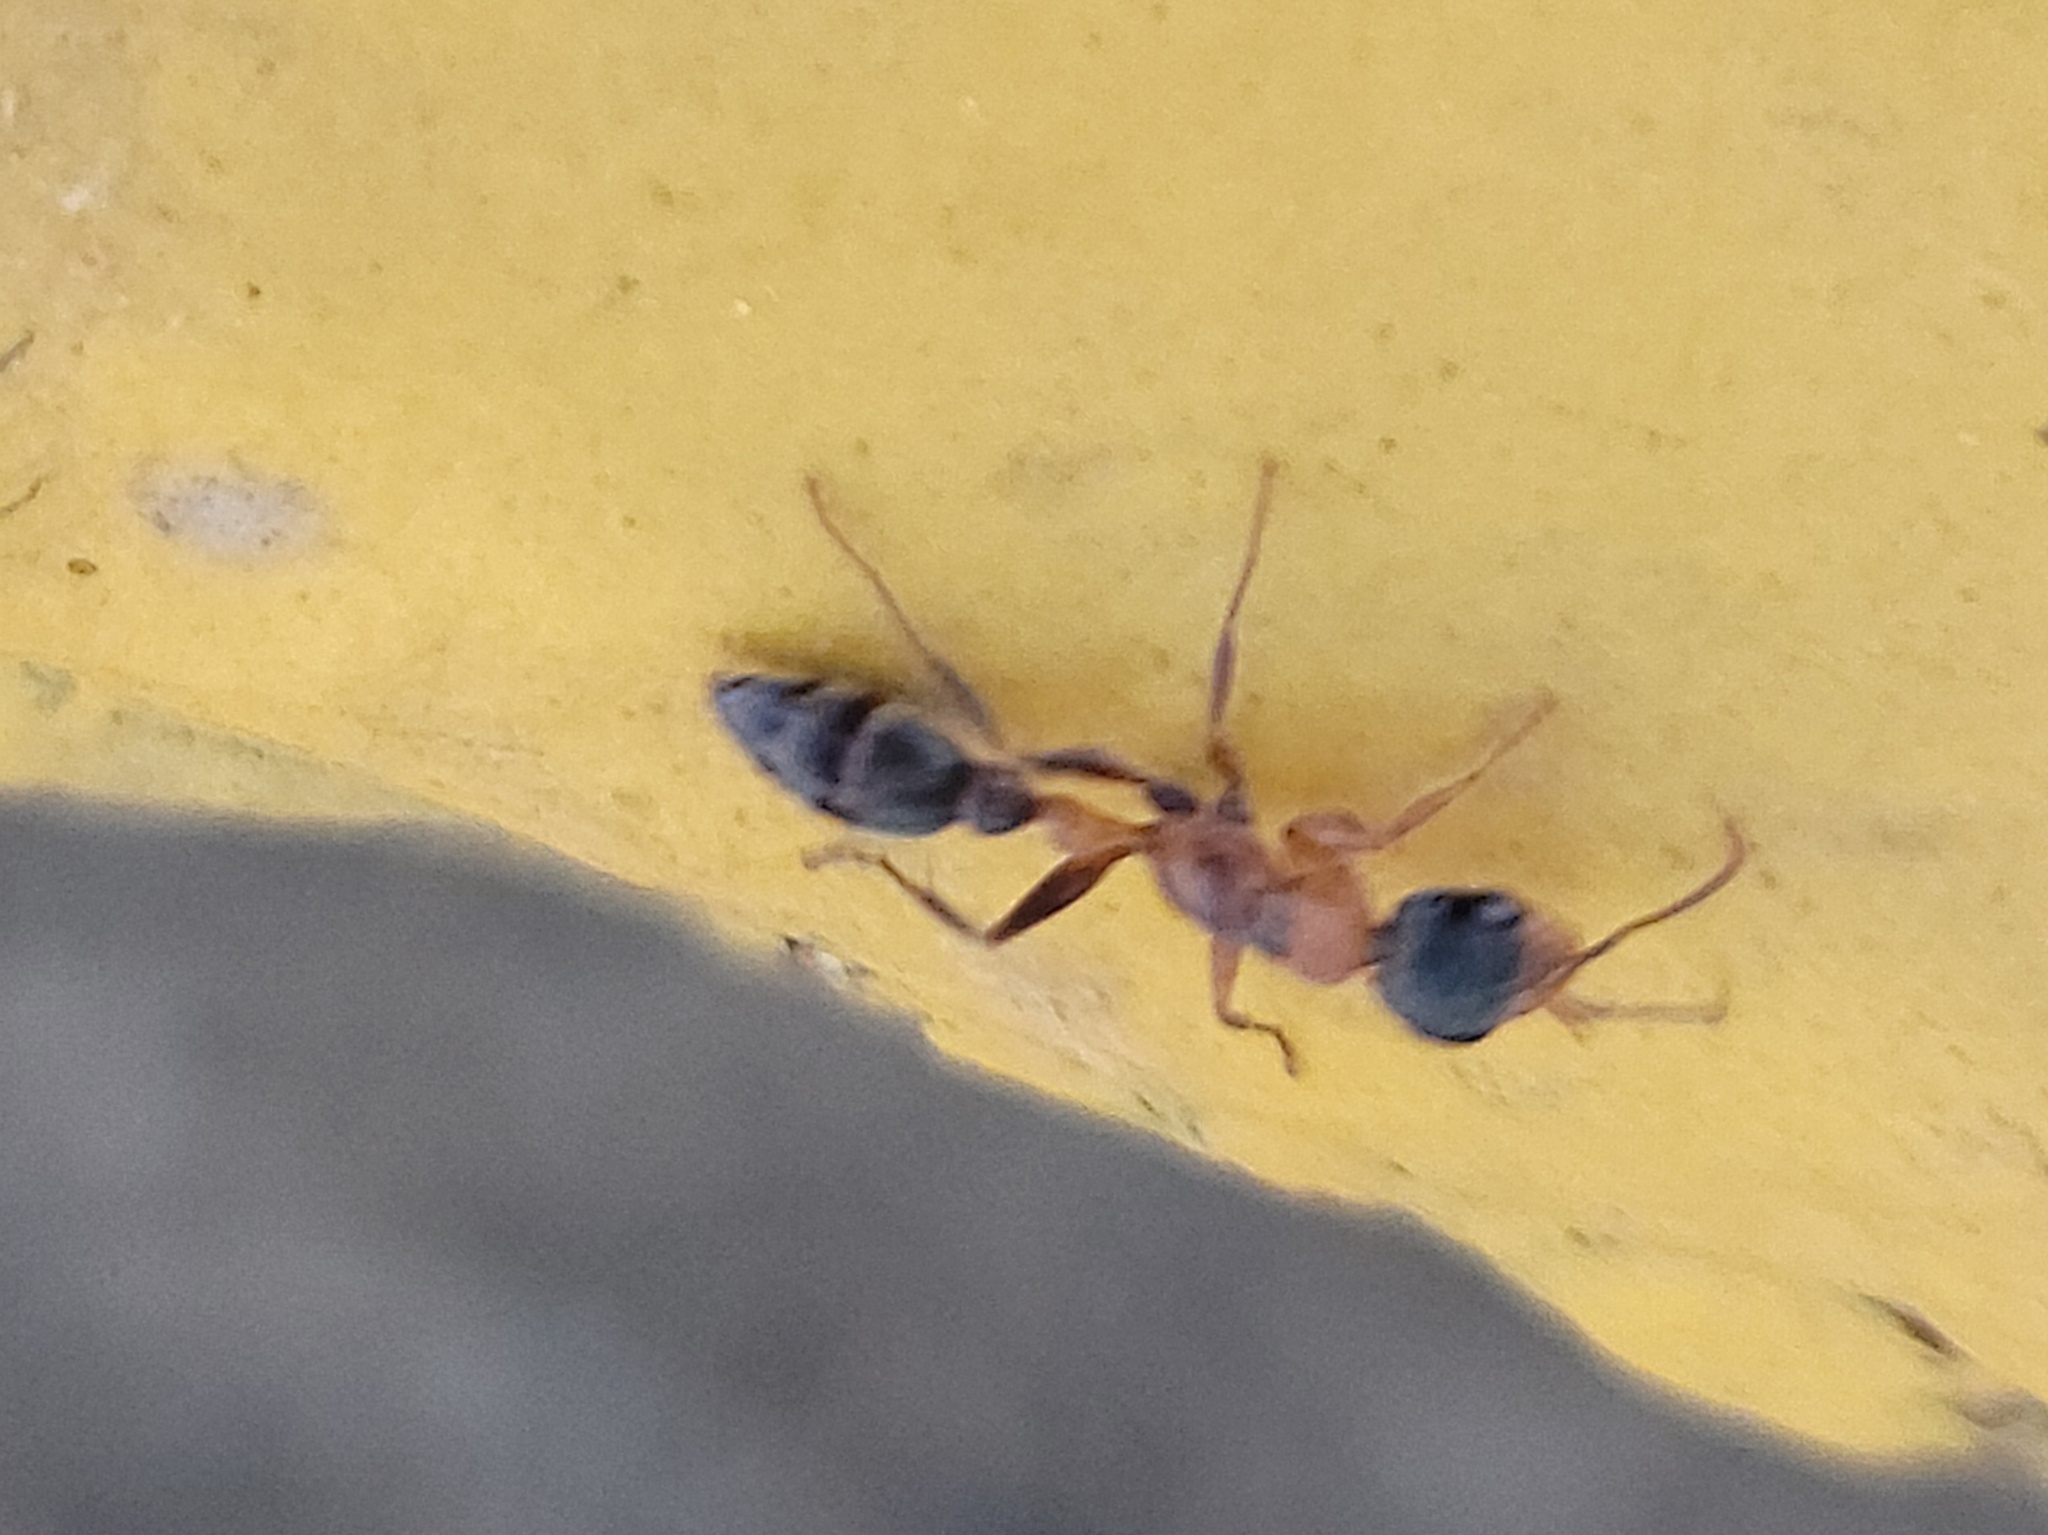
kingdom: Animalia
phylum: Arthropoda
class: Insecta
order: Hymenoptera
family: Formicidae
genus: Pseudomyrmex
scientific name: Pseudomyrmex gracilis
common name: Graceful twig ant
